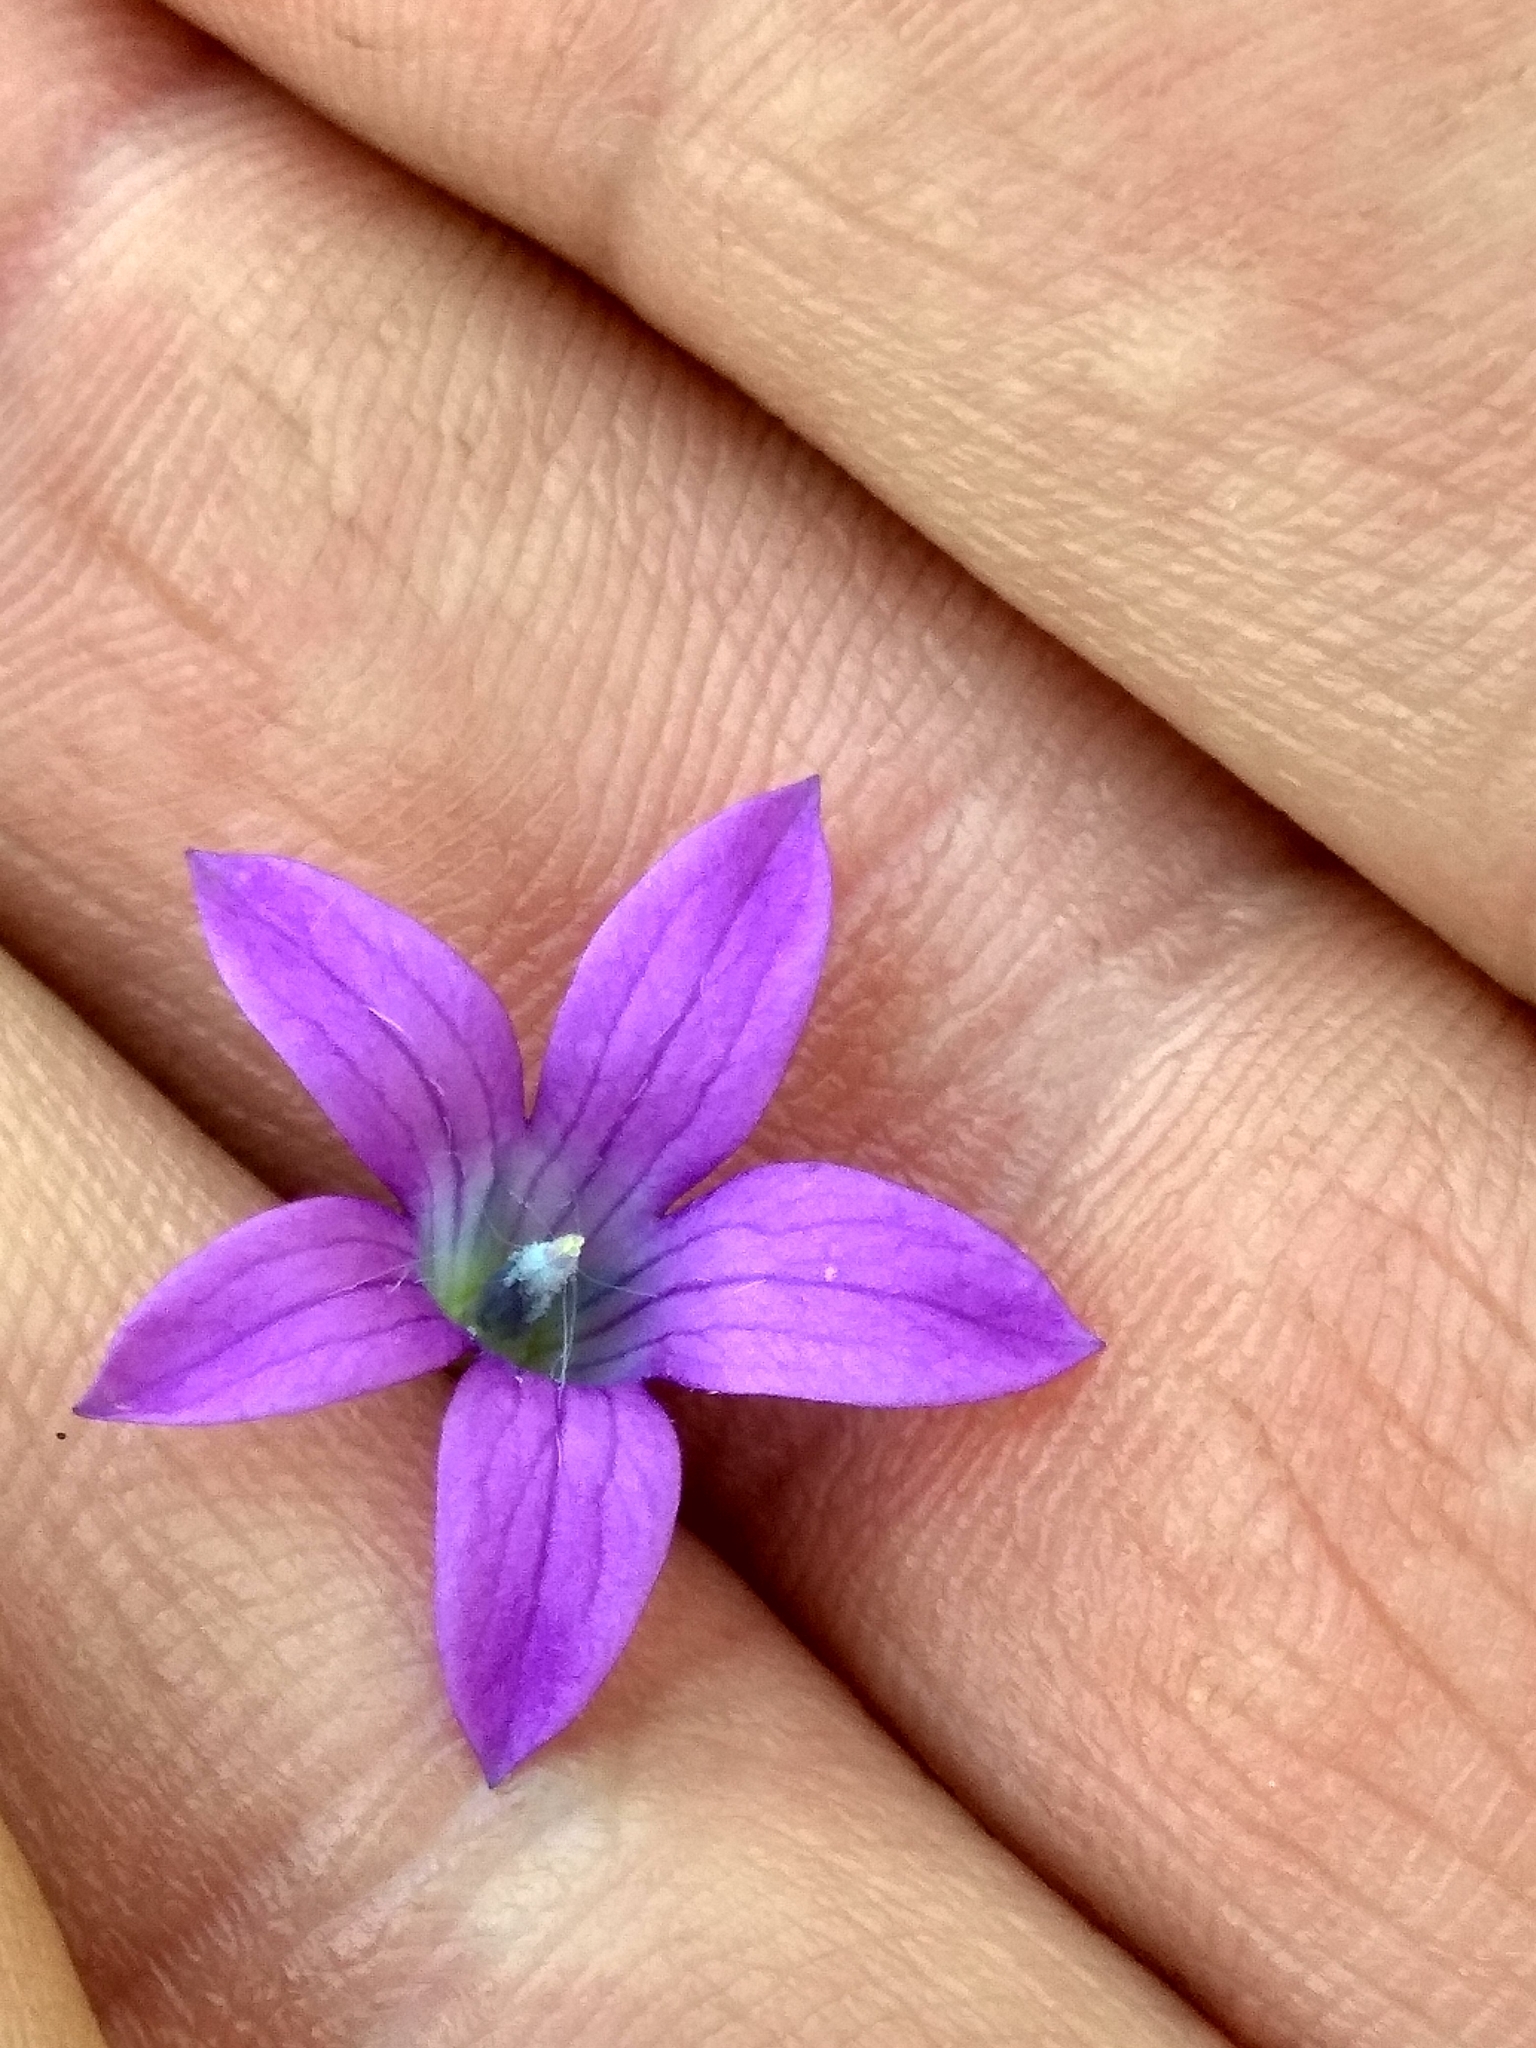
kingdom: Plantae
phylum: Tracheophyta
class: Magnoliopsida
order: Asterales
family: Campanulaceae
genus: Campanula
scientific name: Campanula patula
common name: Spreading bellflower
